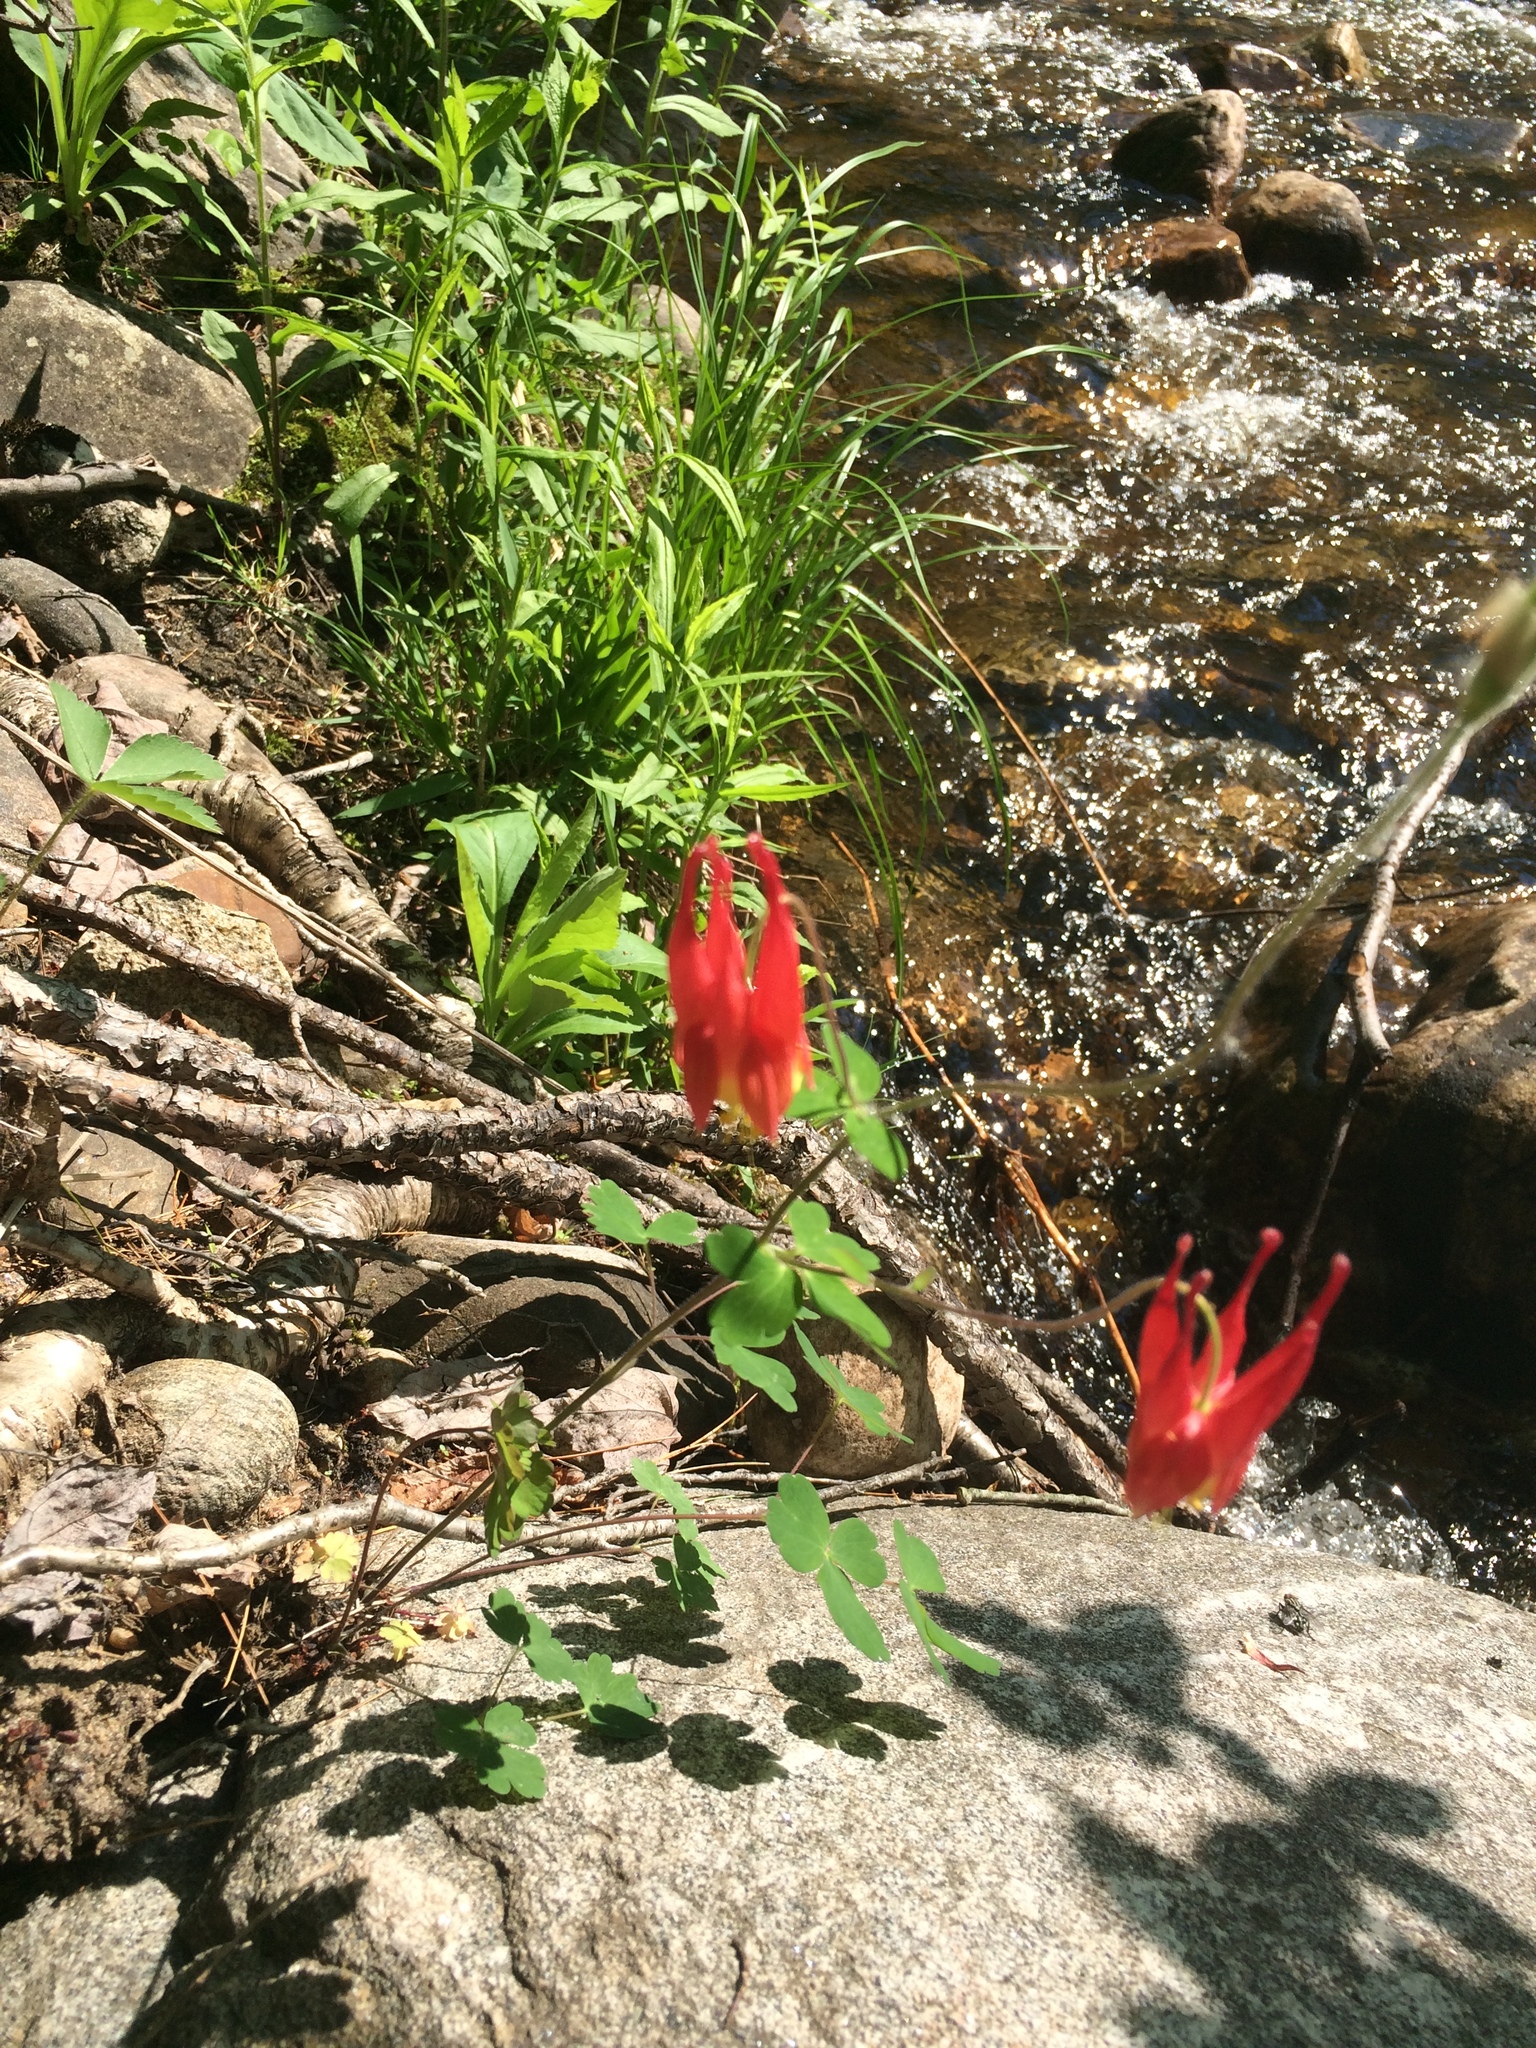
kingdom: Plantae
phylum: Tracheophyta
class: Magnoliopsida
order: Ranunculales
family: Ranunculaceae
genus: Aquilegia
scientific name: Aquilegia canadensis
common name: American columbine
